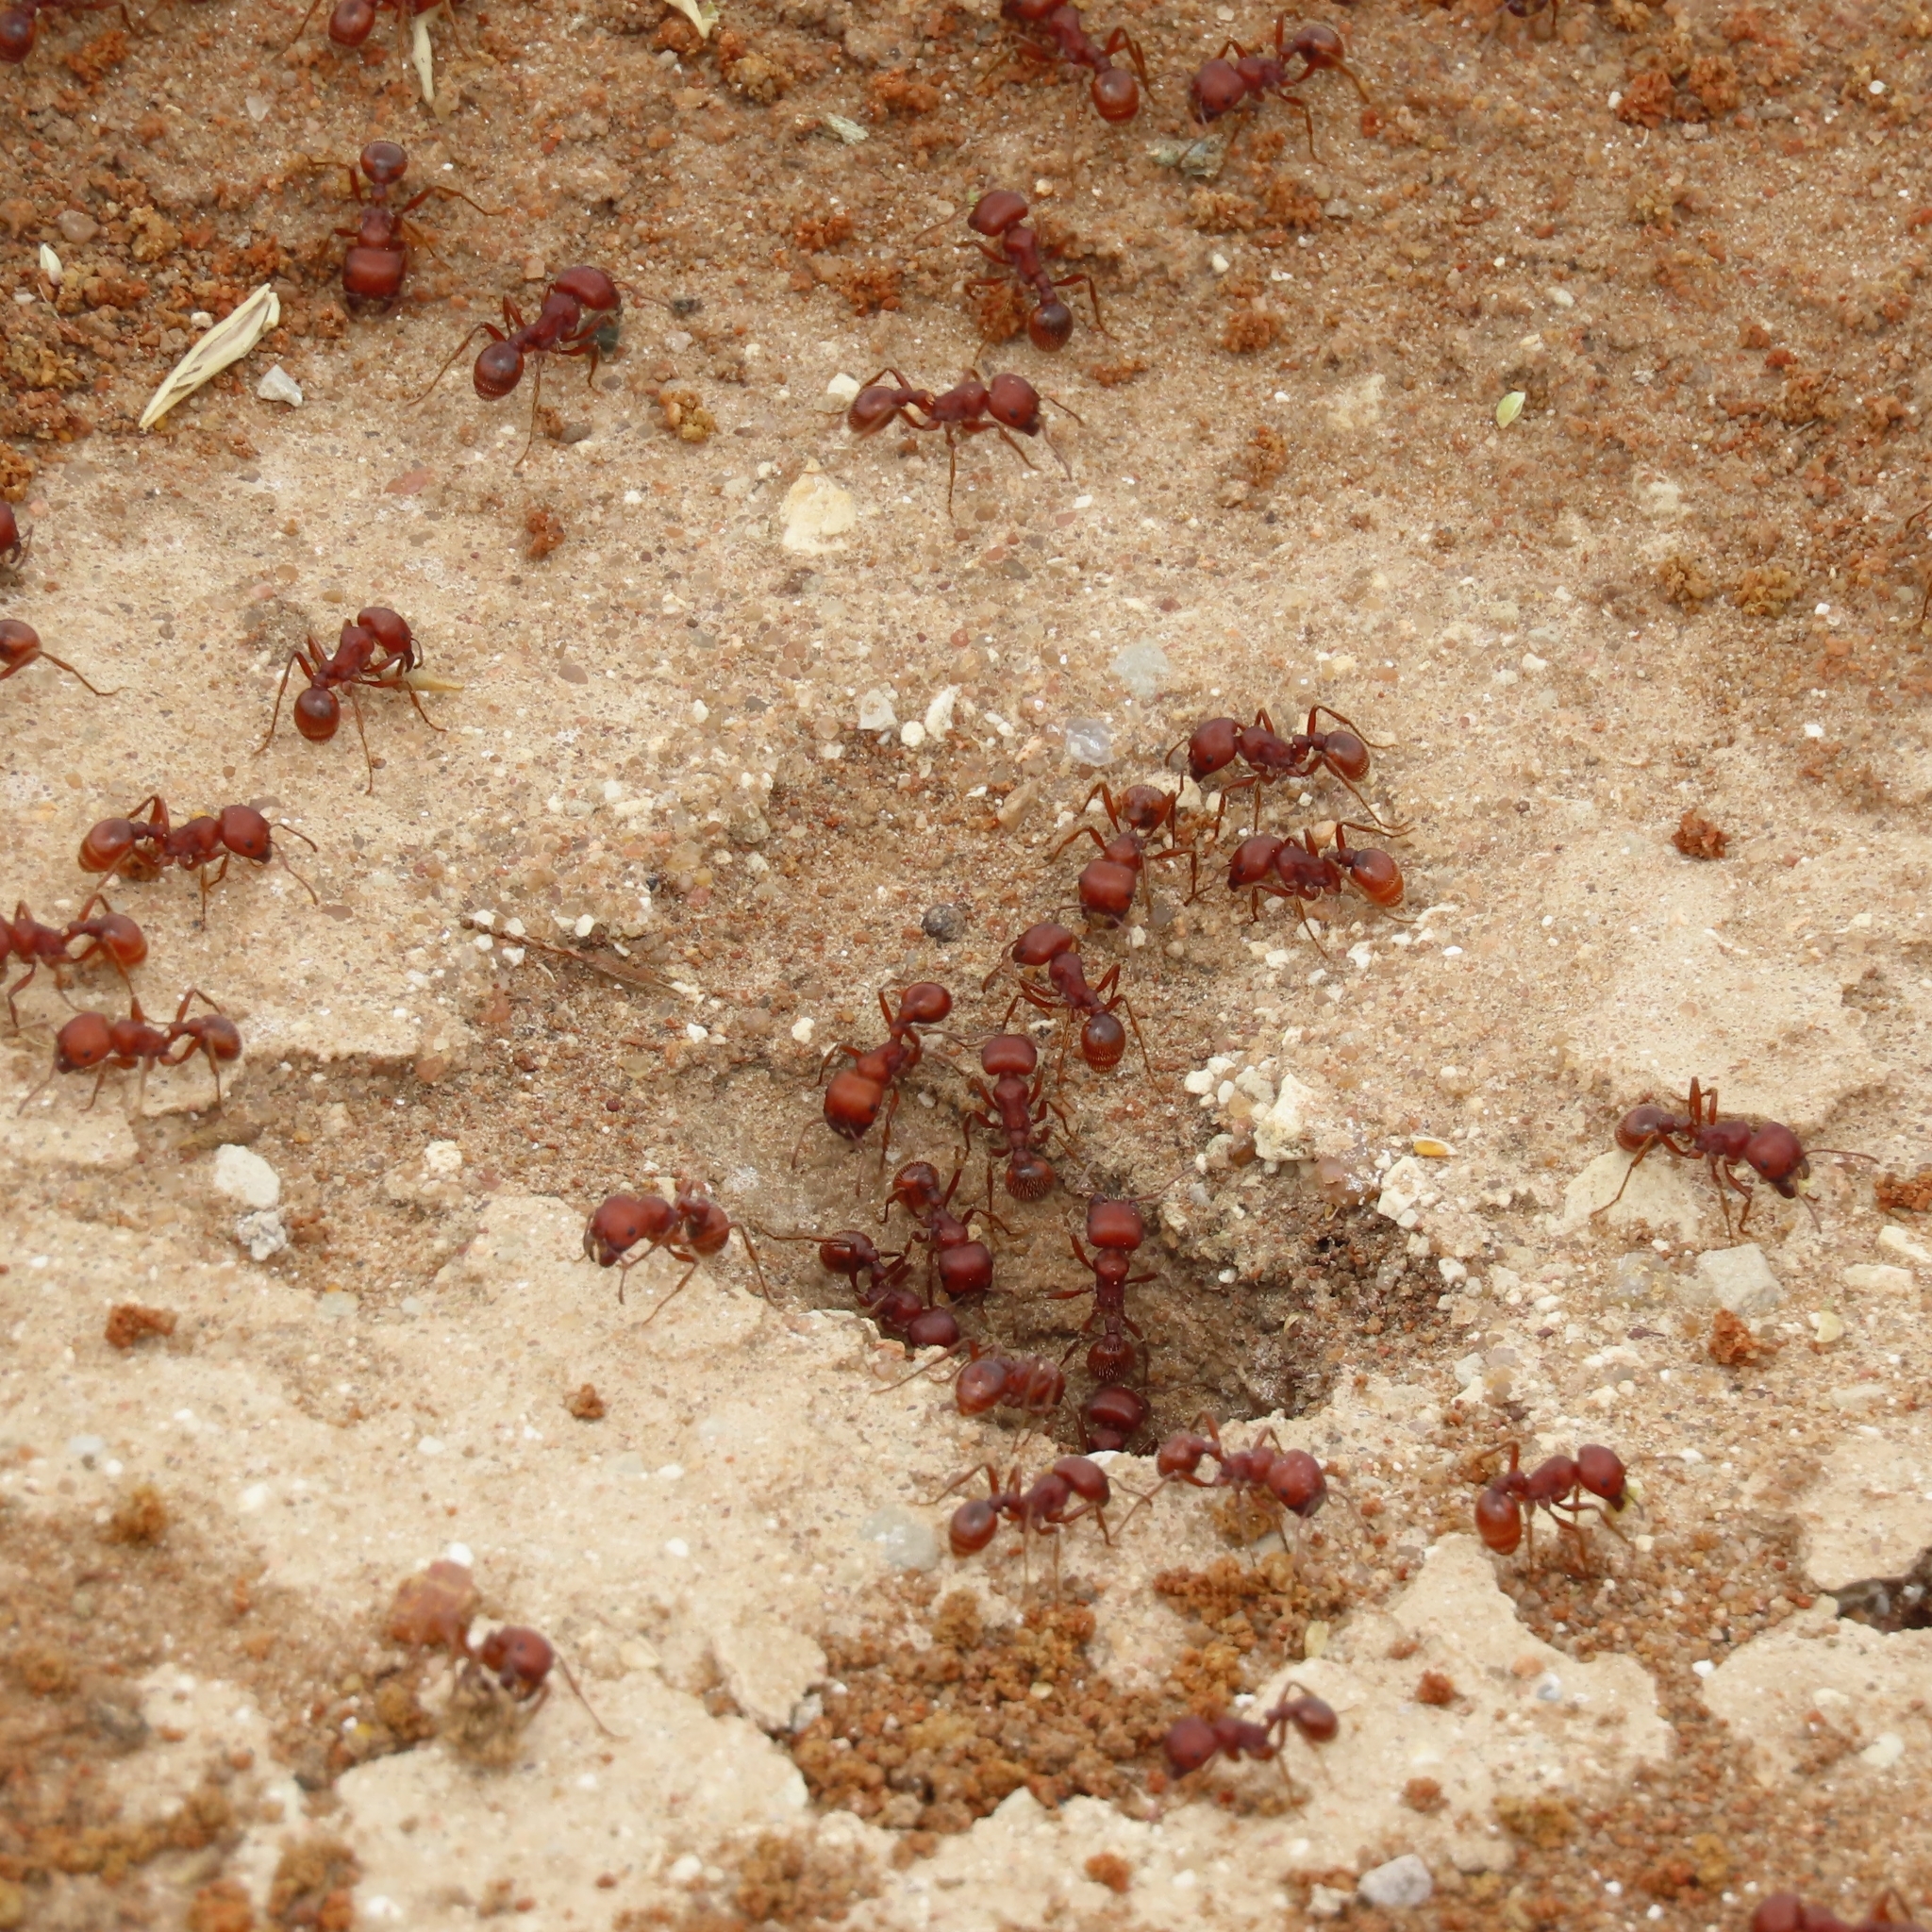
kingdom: Animalia
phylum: Arthropoda
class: Insecta
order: Hymenoptera
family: Formicidae
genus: Pogonomyrmex
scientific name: Pogonomyrmex barbatus
